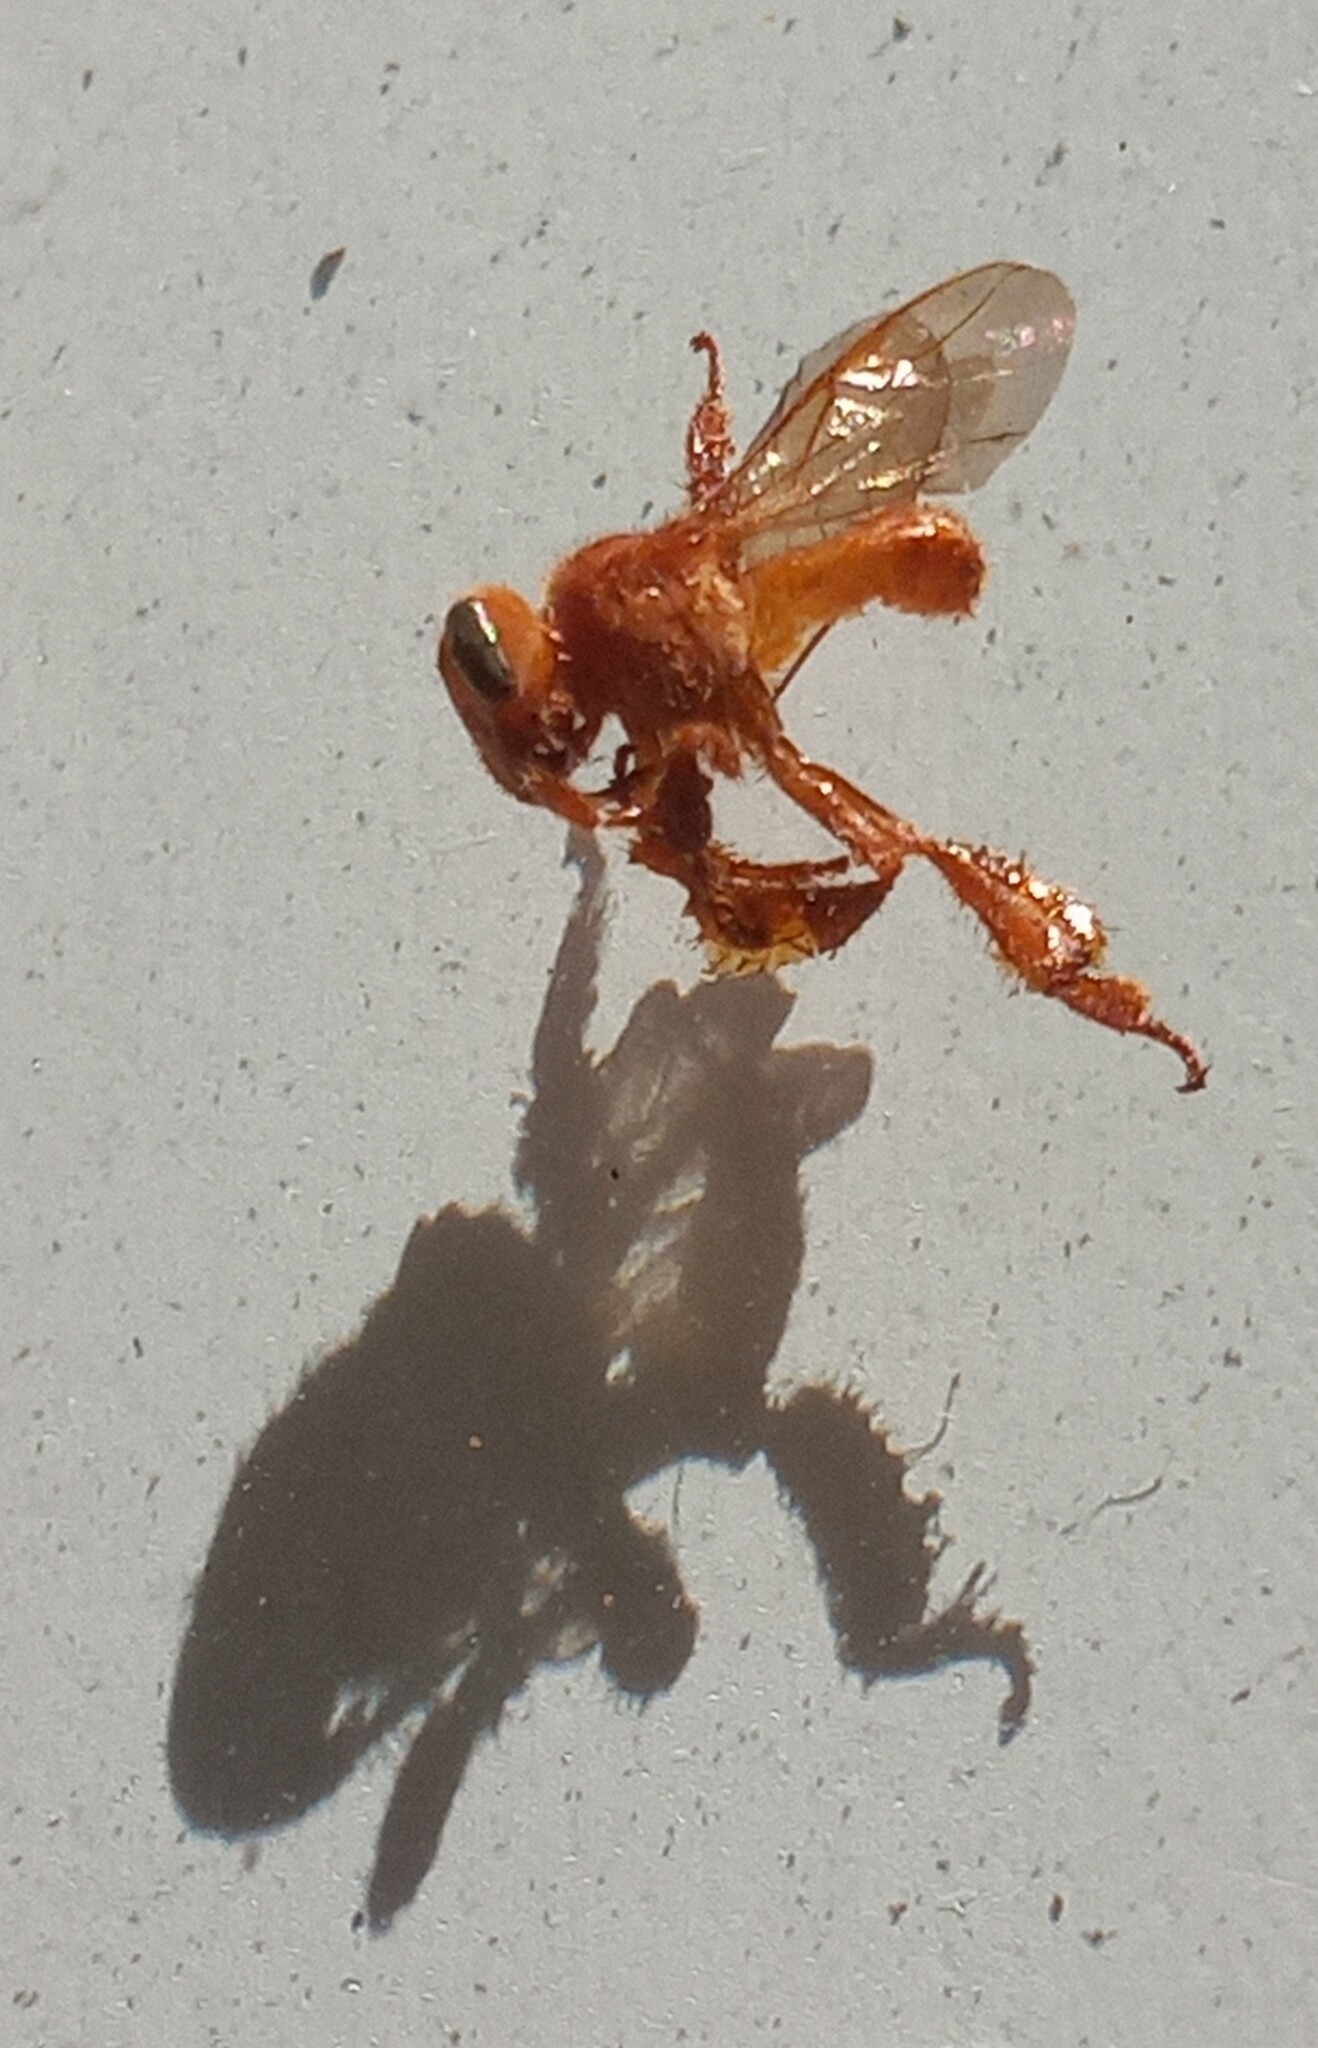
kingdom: Animalia
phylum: Arthropoda
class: Insecta
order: Hymenoptera
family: Apidae
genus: Trigona
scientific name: Trigona pallens
